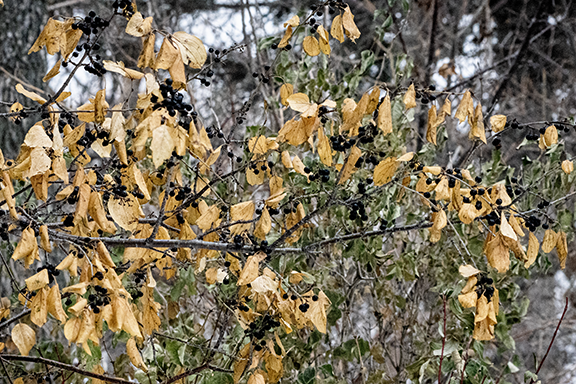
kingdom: Plantae
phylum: Tracheophyta
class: Magnoliopsida
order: Rosales
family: Rhamnaceae
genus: Rhamnus
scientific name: Rhamnus cathartica
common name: Common buckthorn
